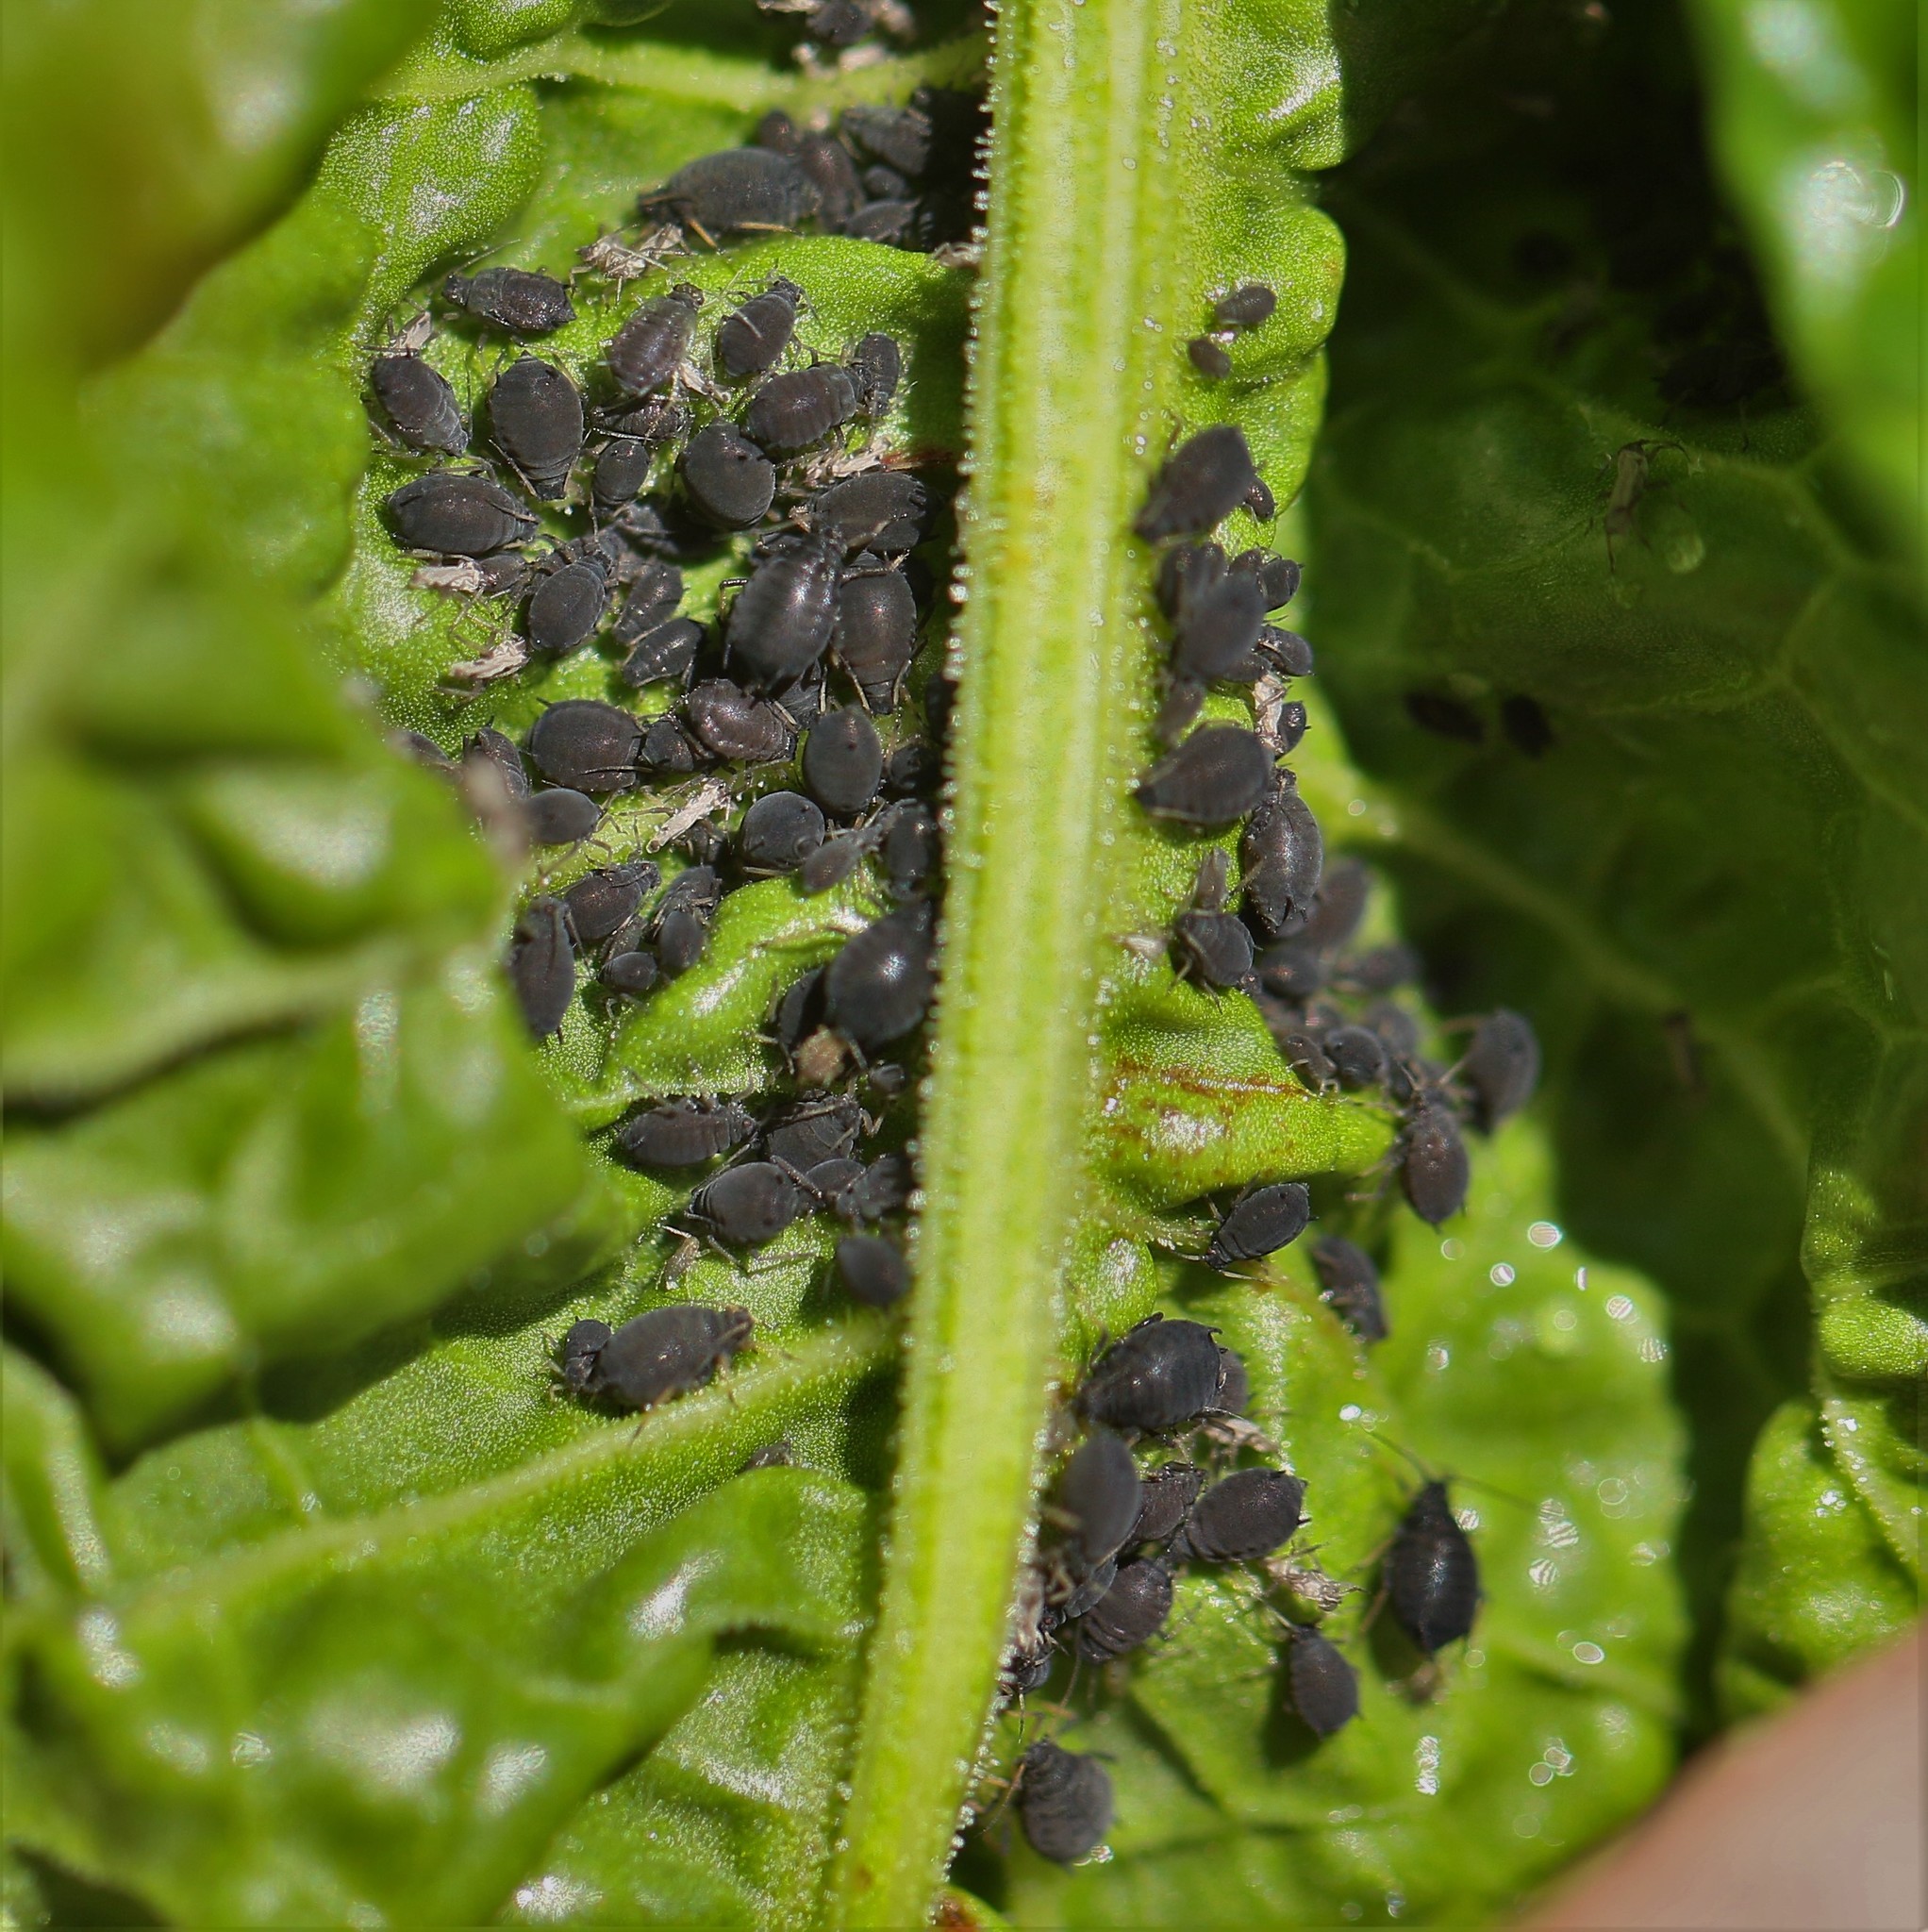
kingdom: Animalia
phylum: Arthropoda
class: Insecta
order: Hemiptera
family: Aphididae
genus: Aphis
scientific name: Aphis rumicis
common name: Aphid
